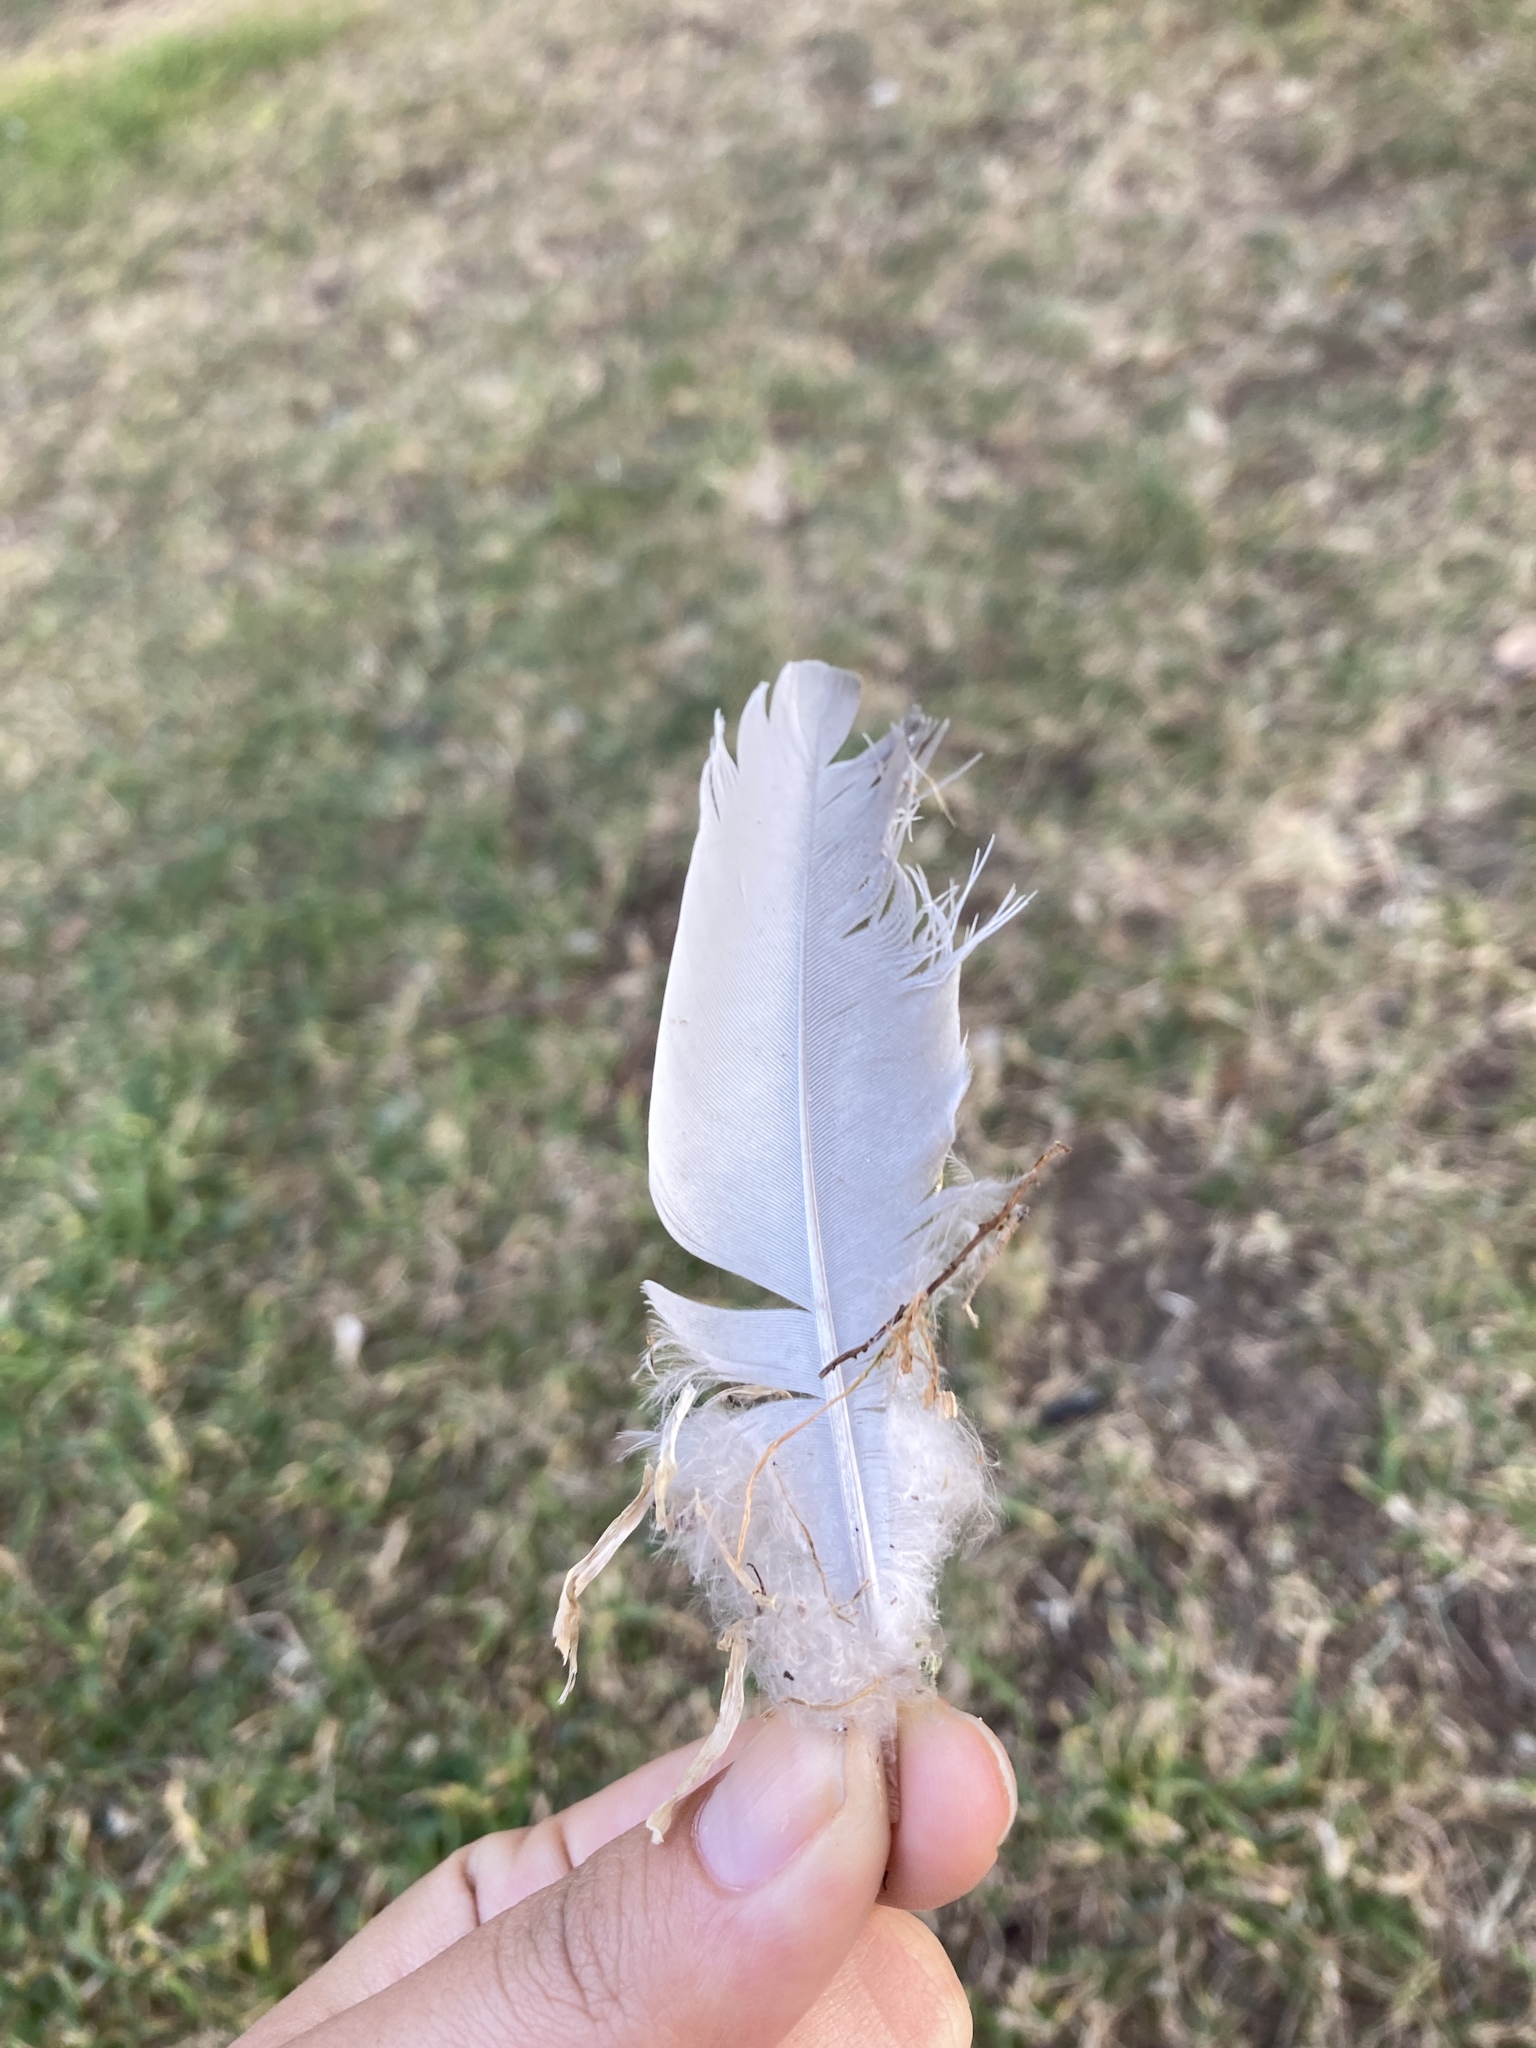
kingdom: Animalia
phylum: Chordata
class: Aves
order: Columbiformes
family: Columbidae
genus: Columba
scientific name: Columba palumbus
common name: Common wood pigeon
